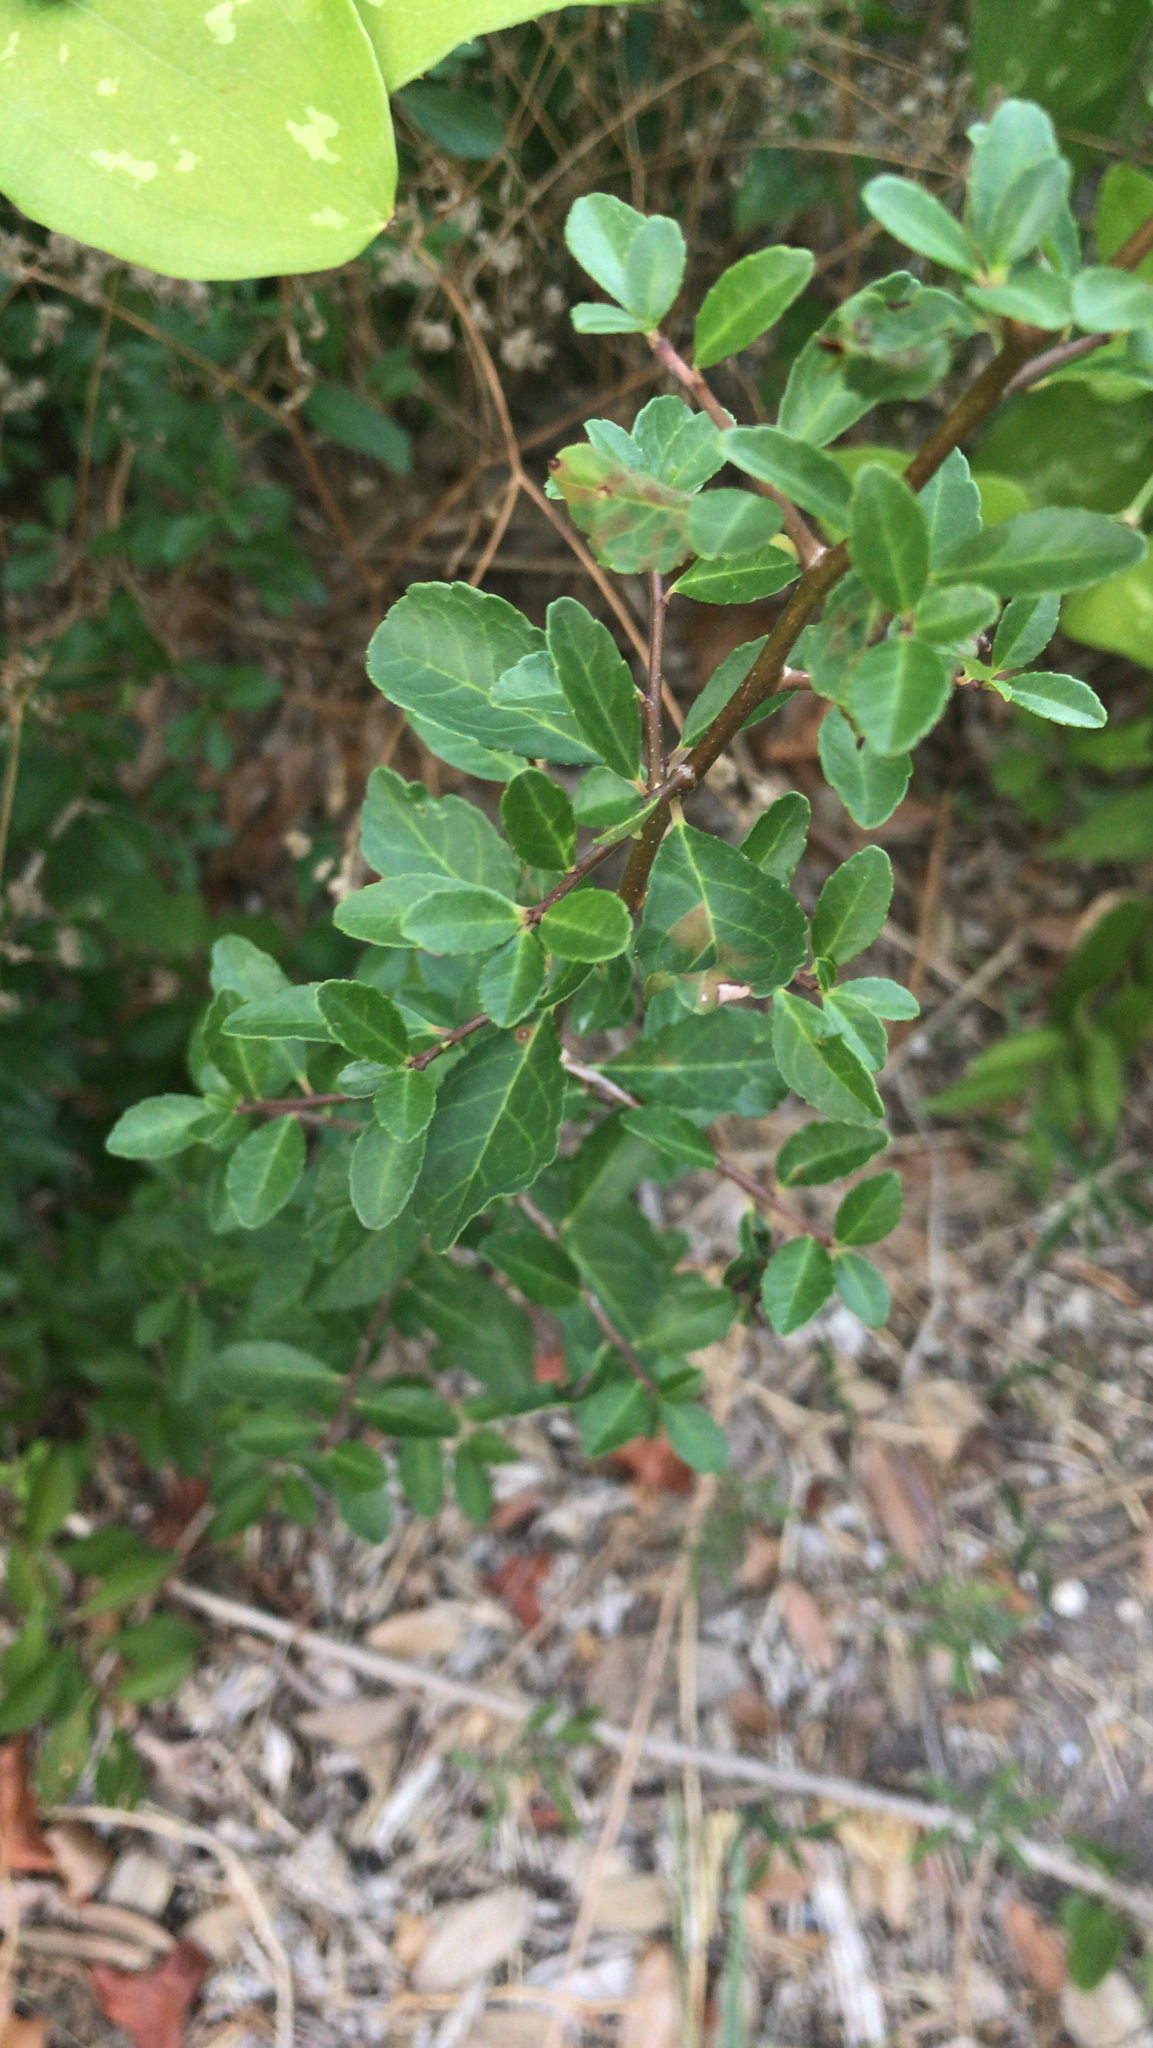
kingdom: Plantae
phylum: Tracheophyta
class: Magnoliopsida
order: Aquifoliales
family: Aquifoliaceae
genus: Ilex
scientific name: Ilex vomitoria
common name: Yaupon holly
